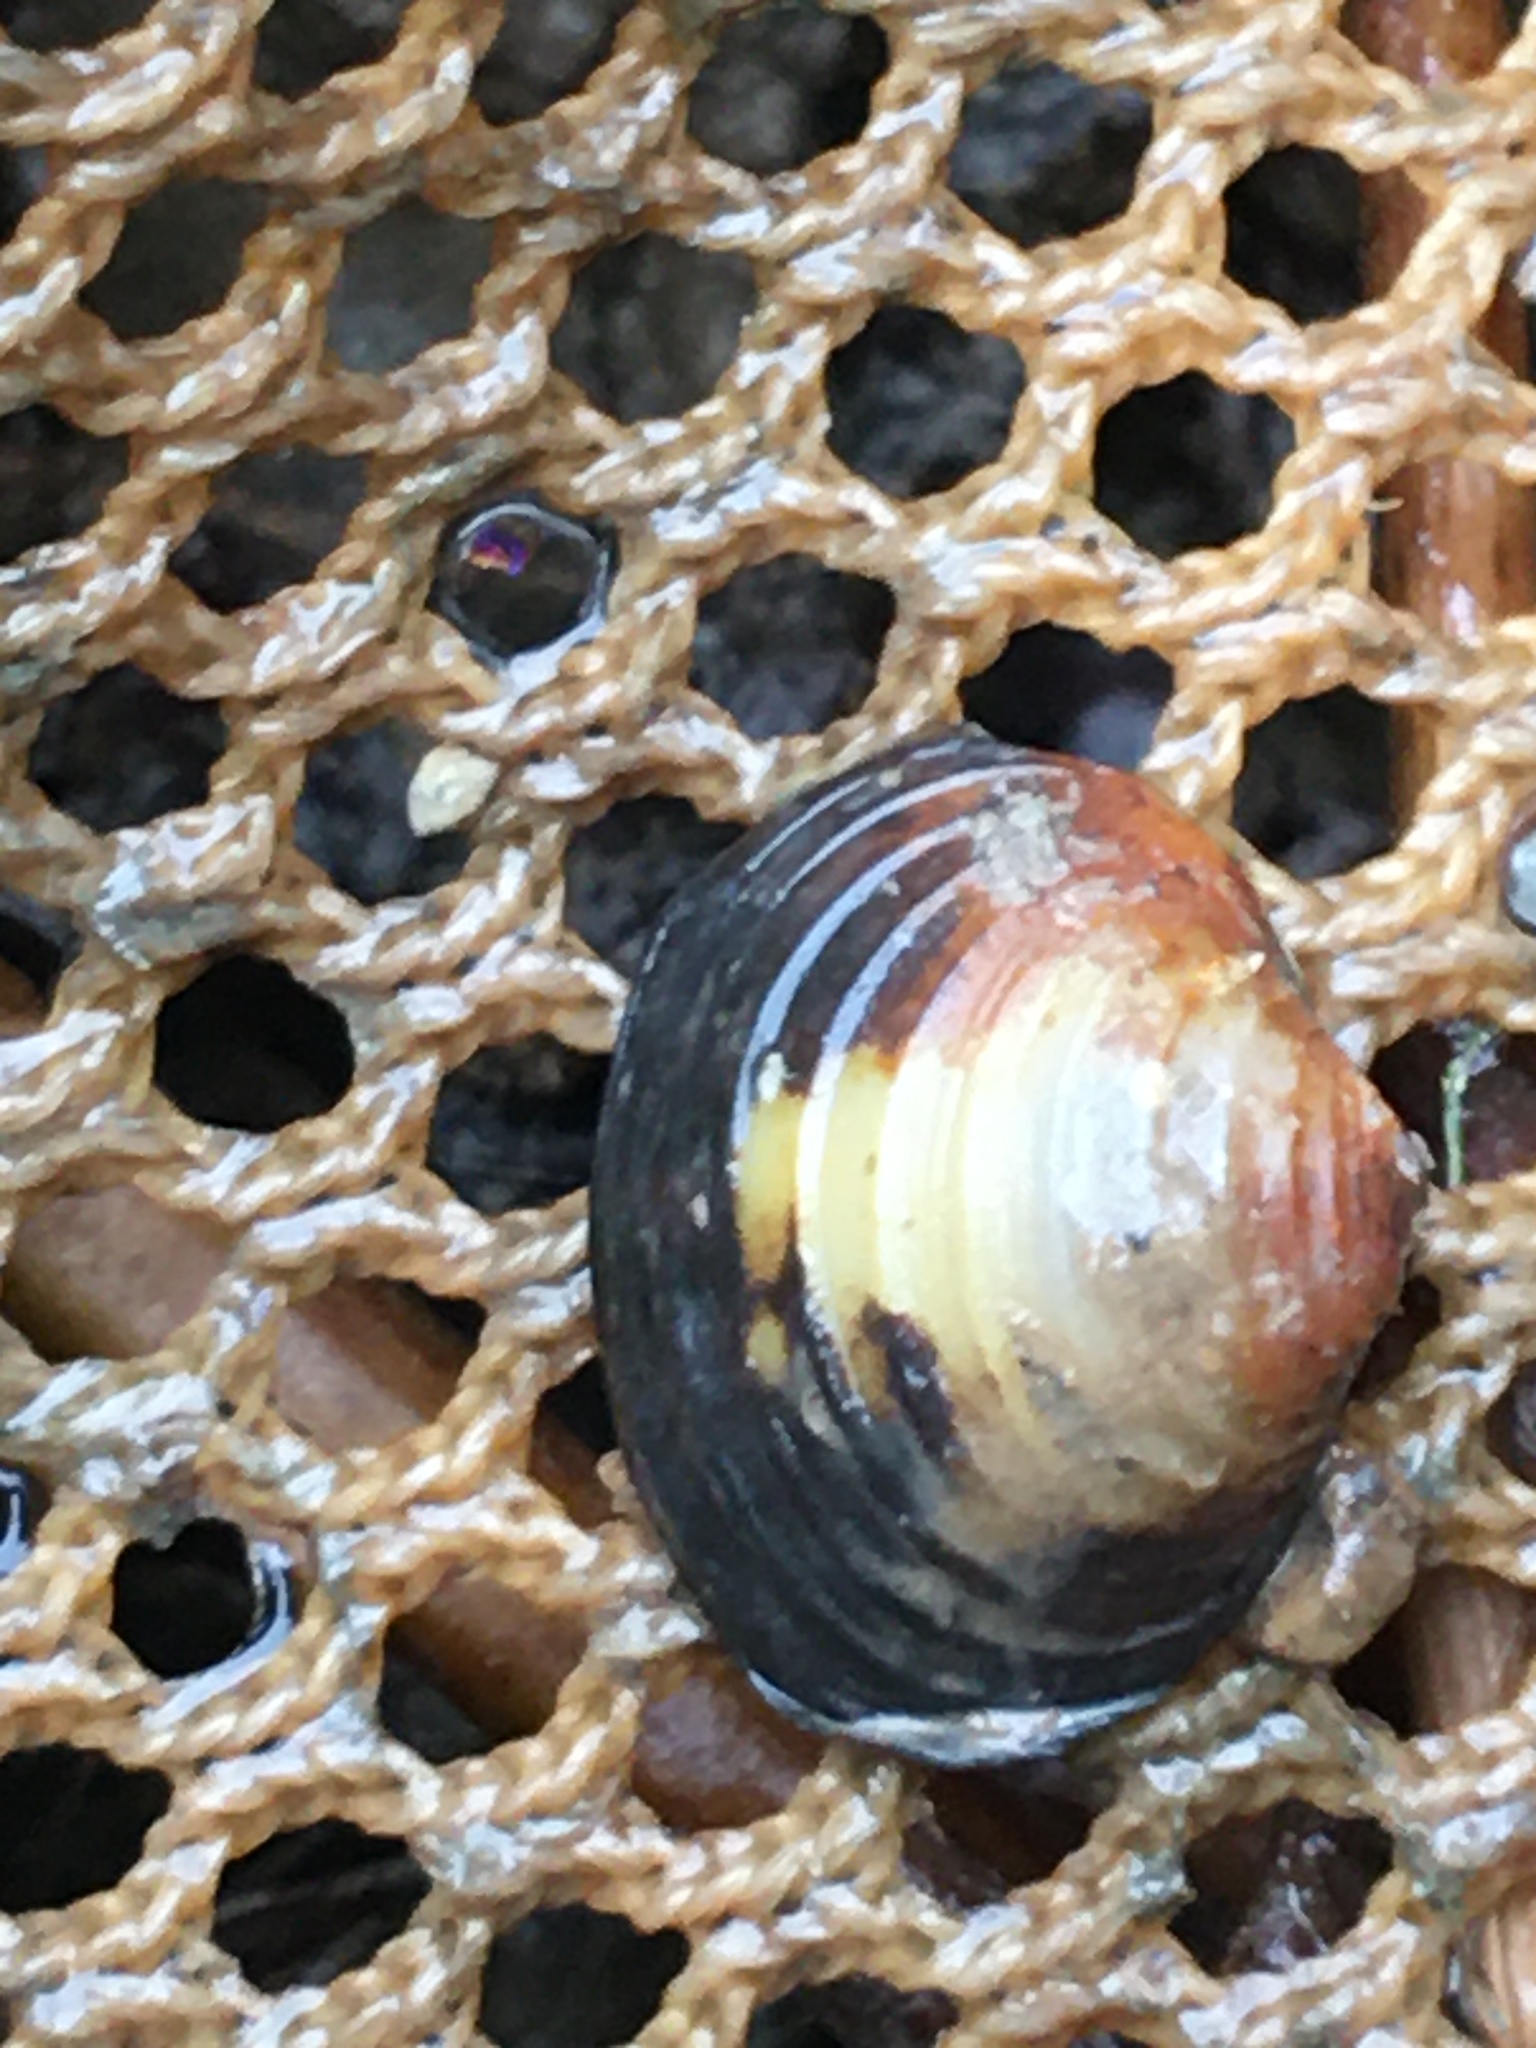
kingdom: Animalia
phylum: Mollusca
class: Bivalvia
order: Venerida
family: Cyrenidae
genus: Corbicula
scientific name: Corbicula fluminea
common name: Asian clam
